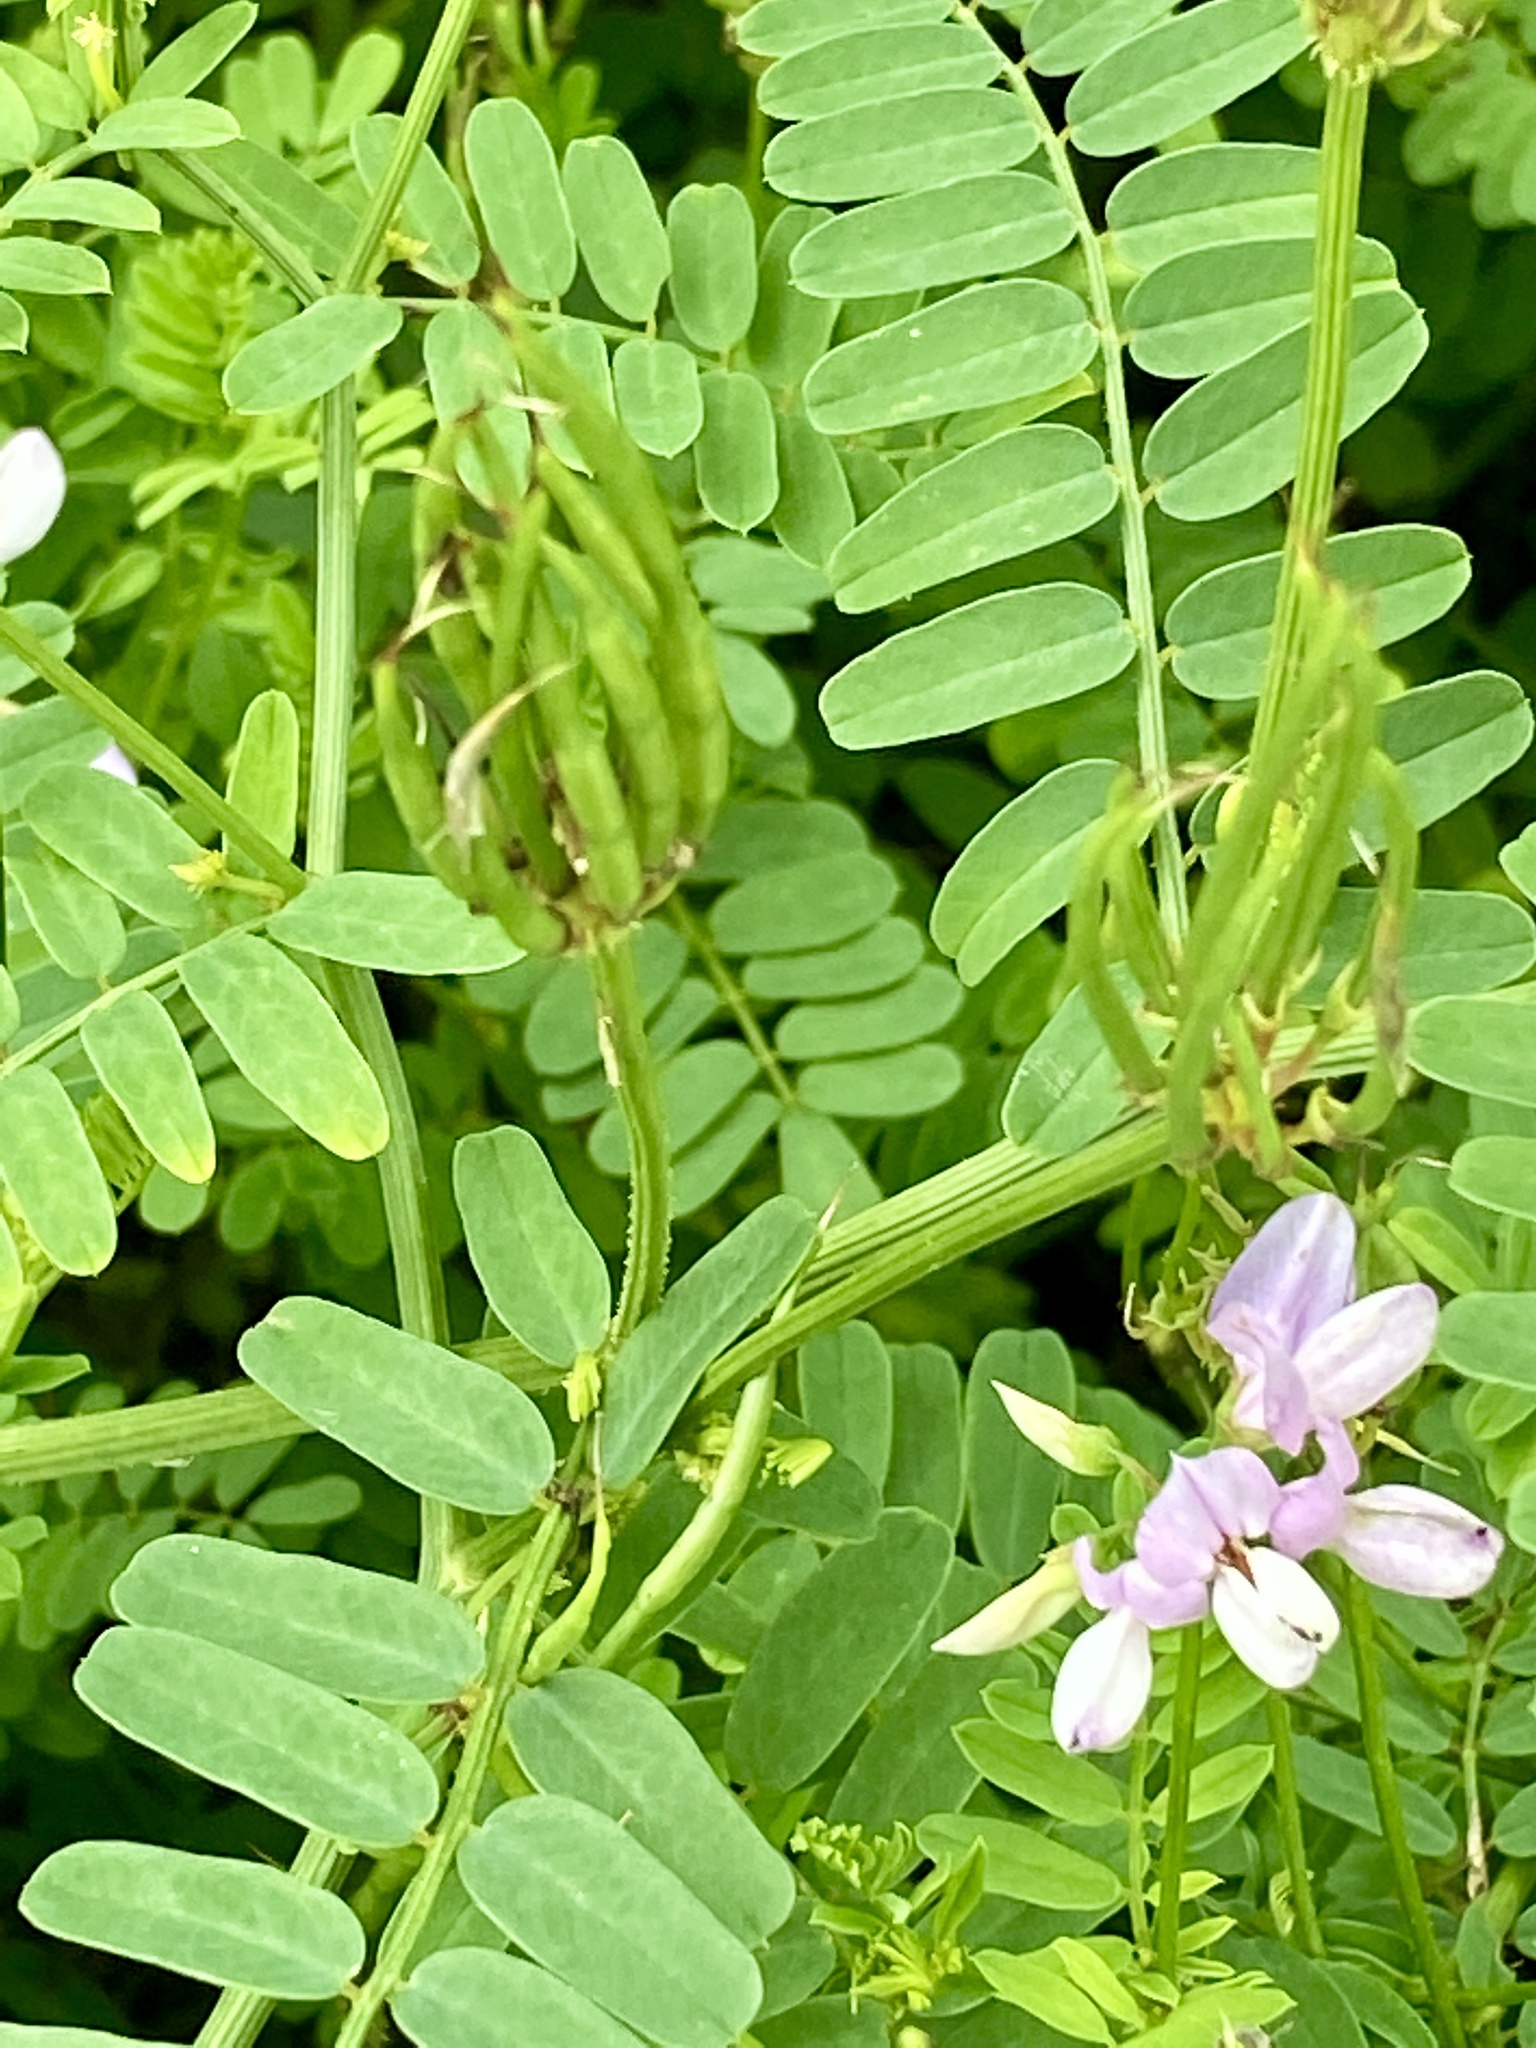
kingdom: Plantae
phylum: Tracheophyta
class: Magnoliopsida
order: Fabales
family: Fabaceae
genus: Coronilla
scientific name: Coronilla varia
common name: Crownvetch
